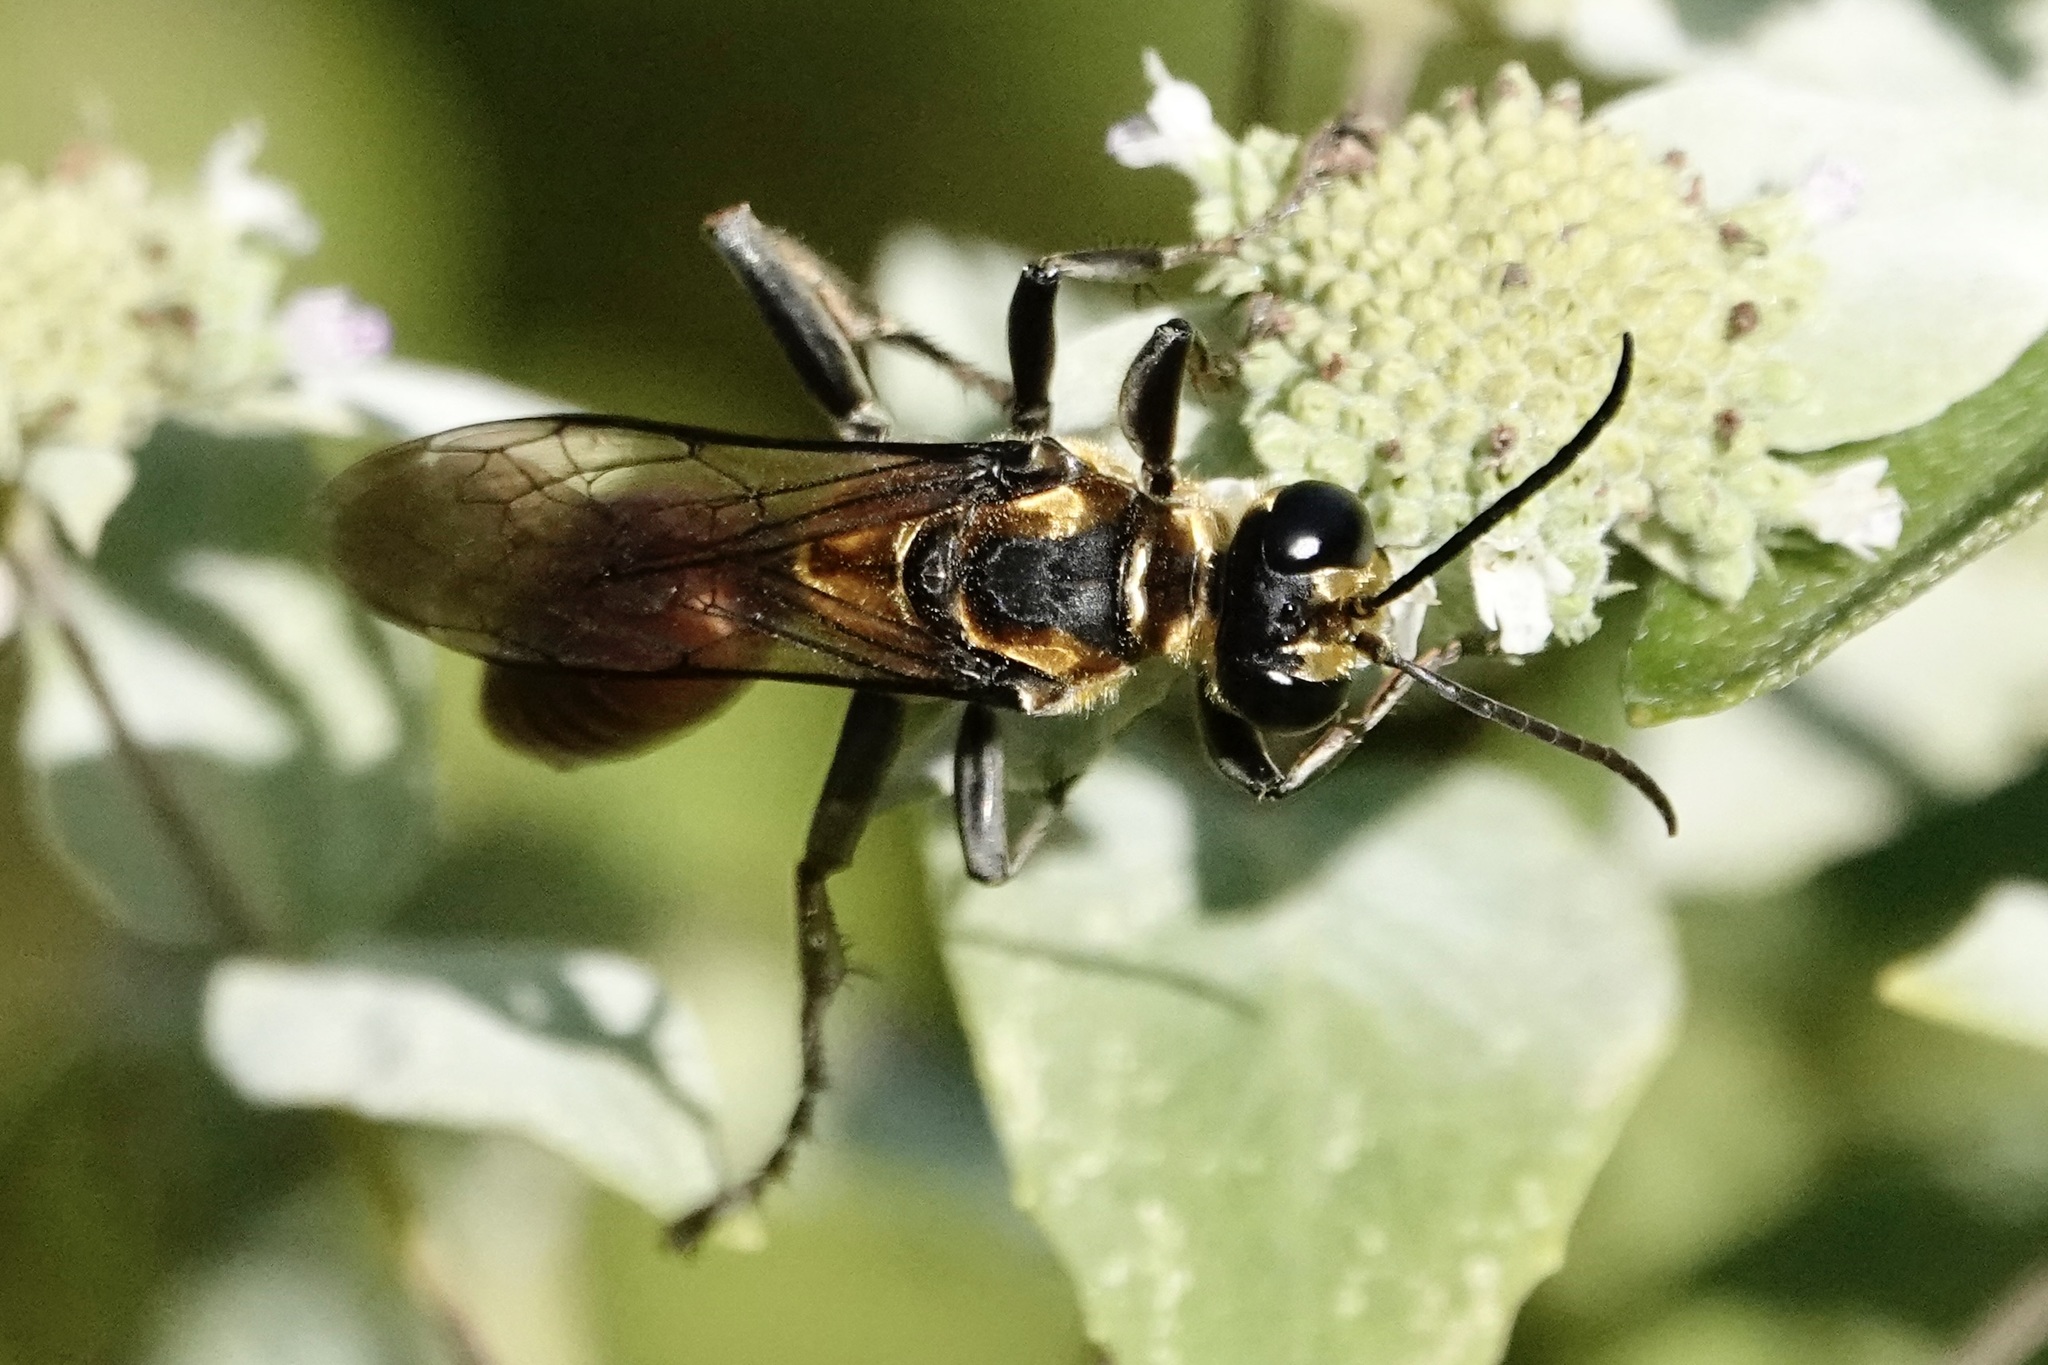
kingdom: Animalia
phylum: Arthropoda
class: Insecta
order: Hymenoptera
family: Sphecidae
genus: Sphex
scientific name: Sphex habenus
